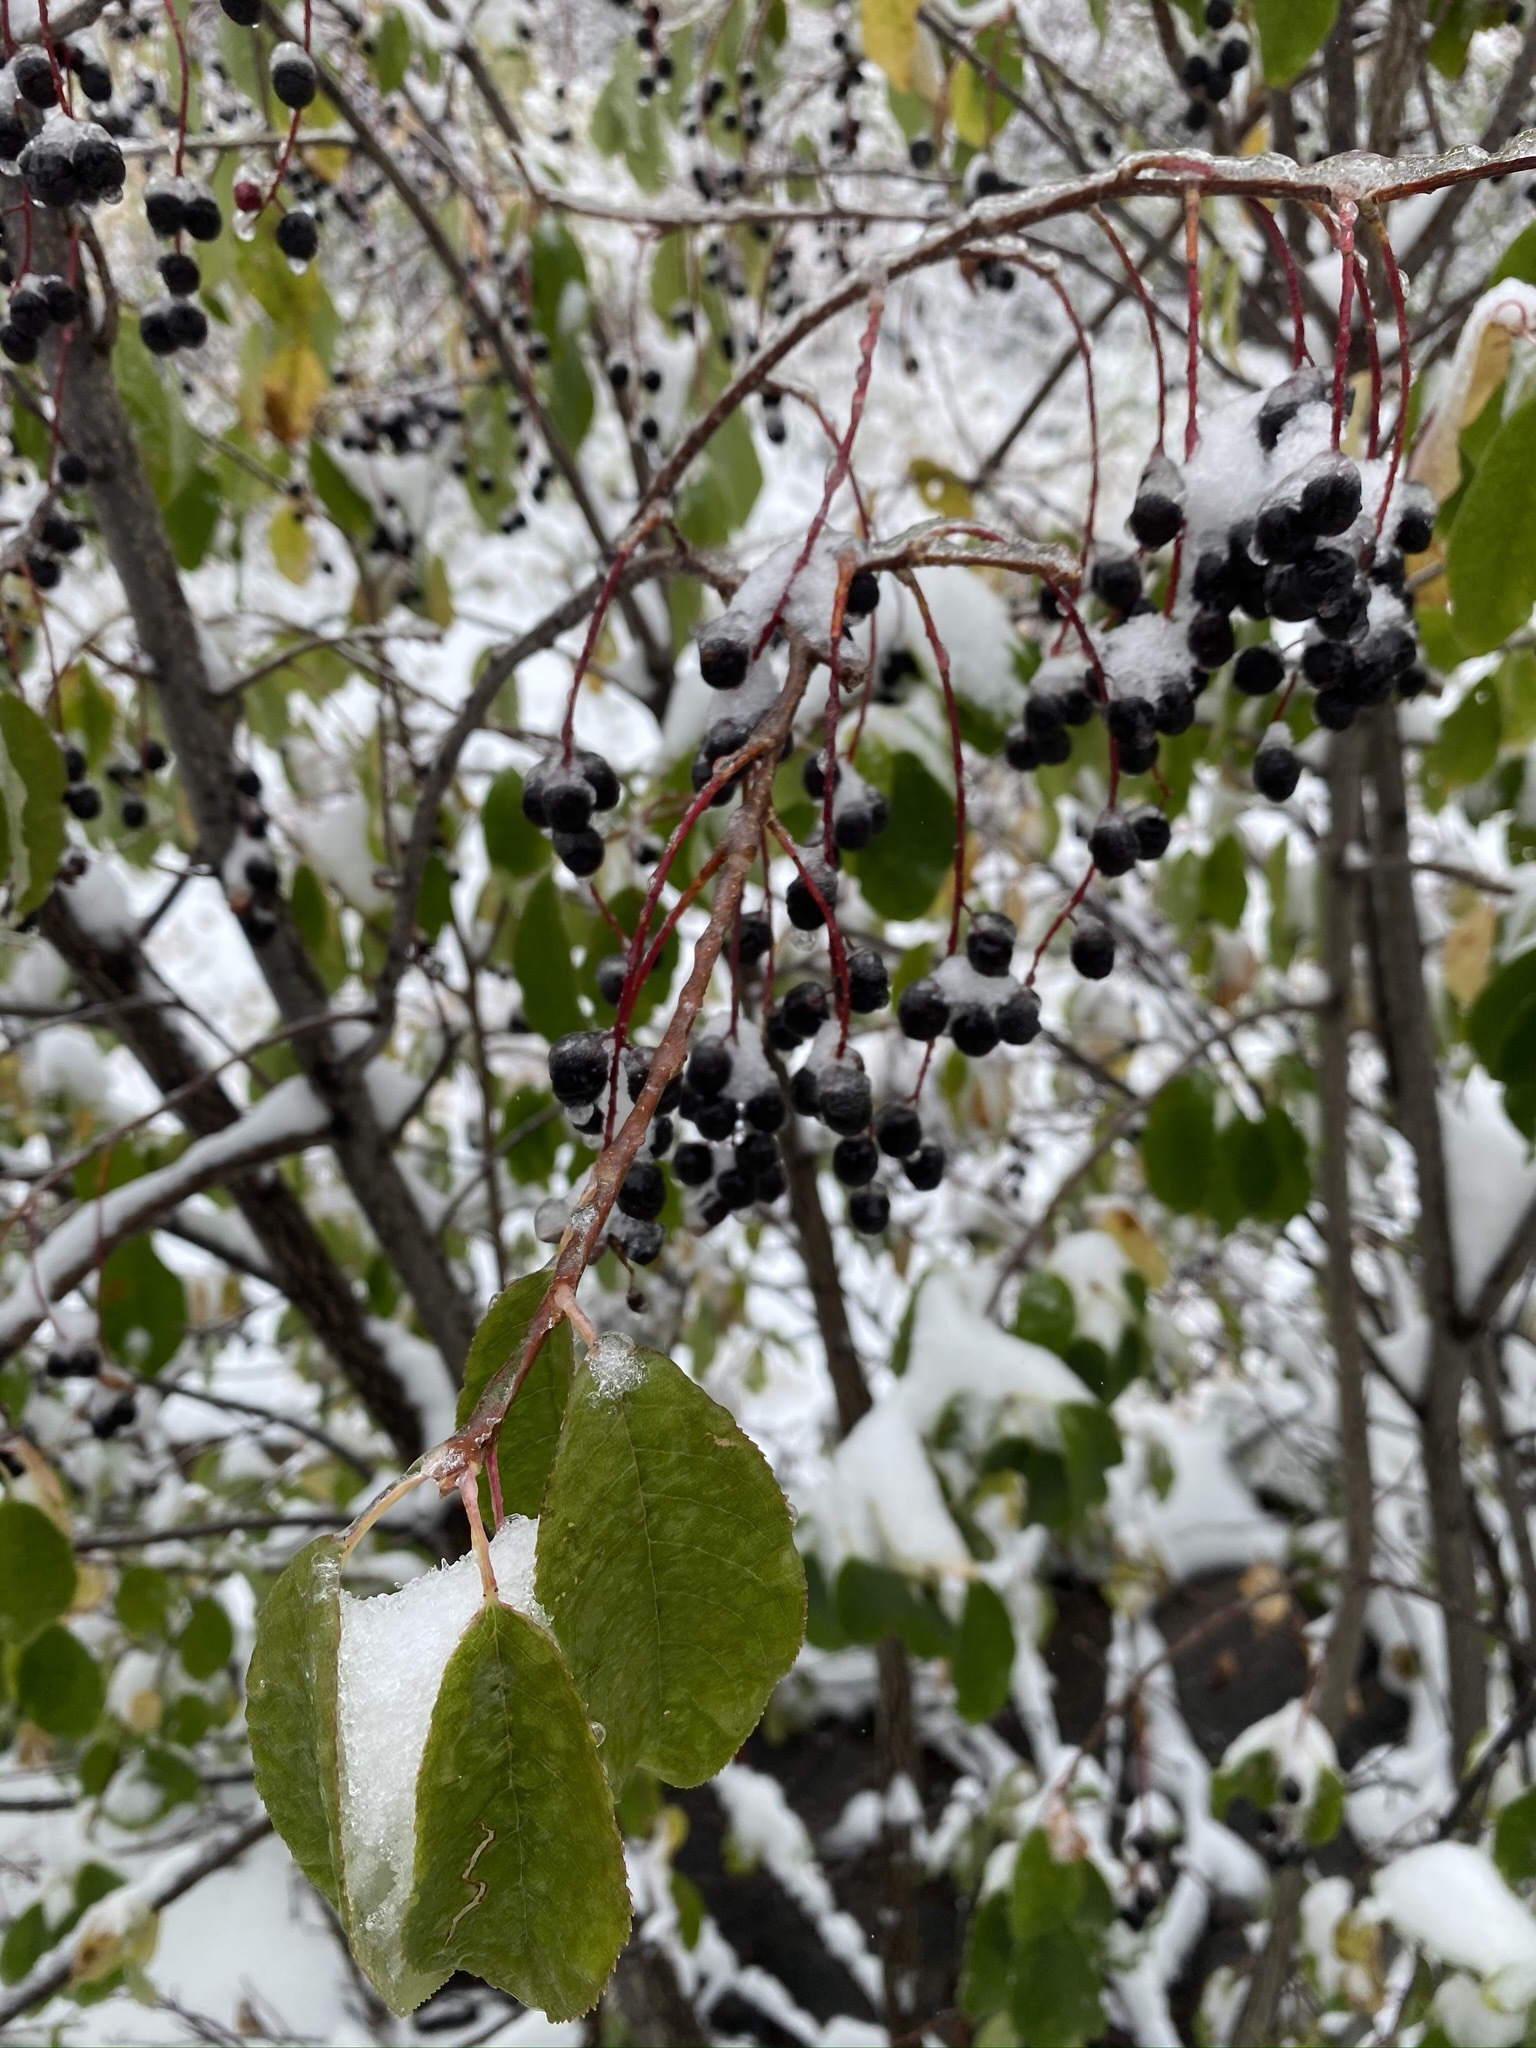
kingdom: Plantae
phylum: Tracheophyta
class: Magnoliopsida
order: Rosales
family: Rosaceae
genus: Prunus
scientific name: Prunus virginiana
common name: Chokecherry
